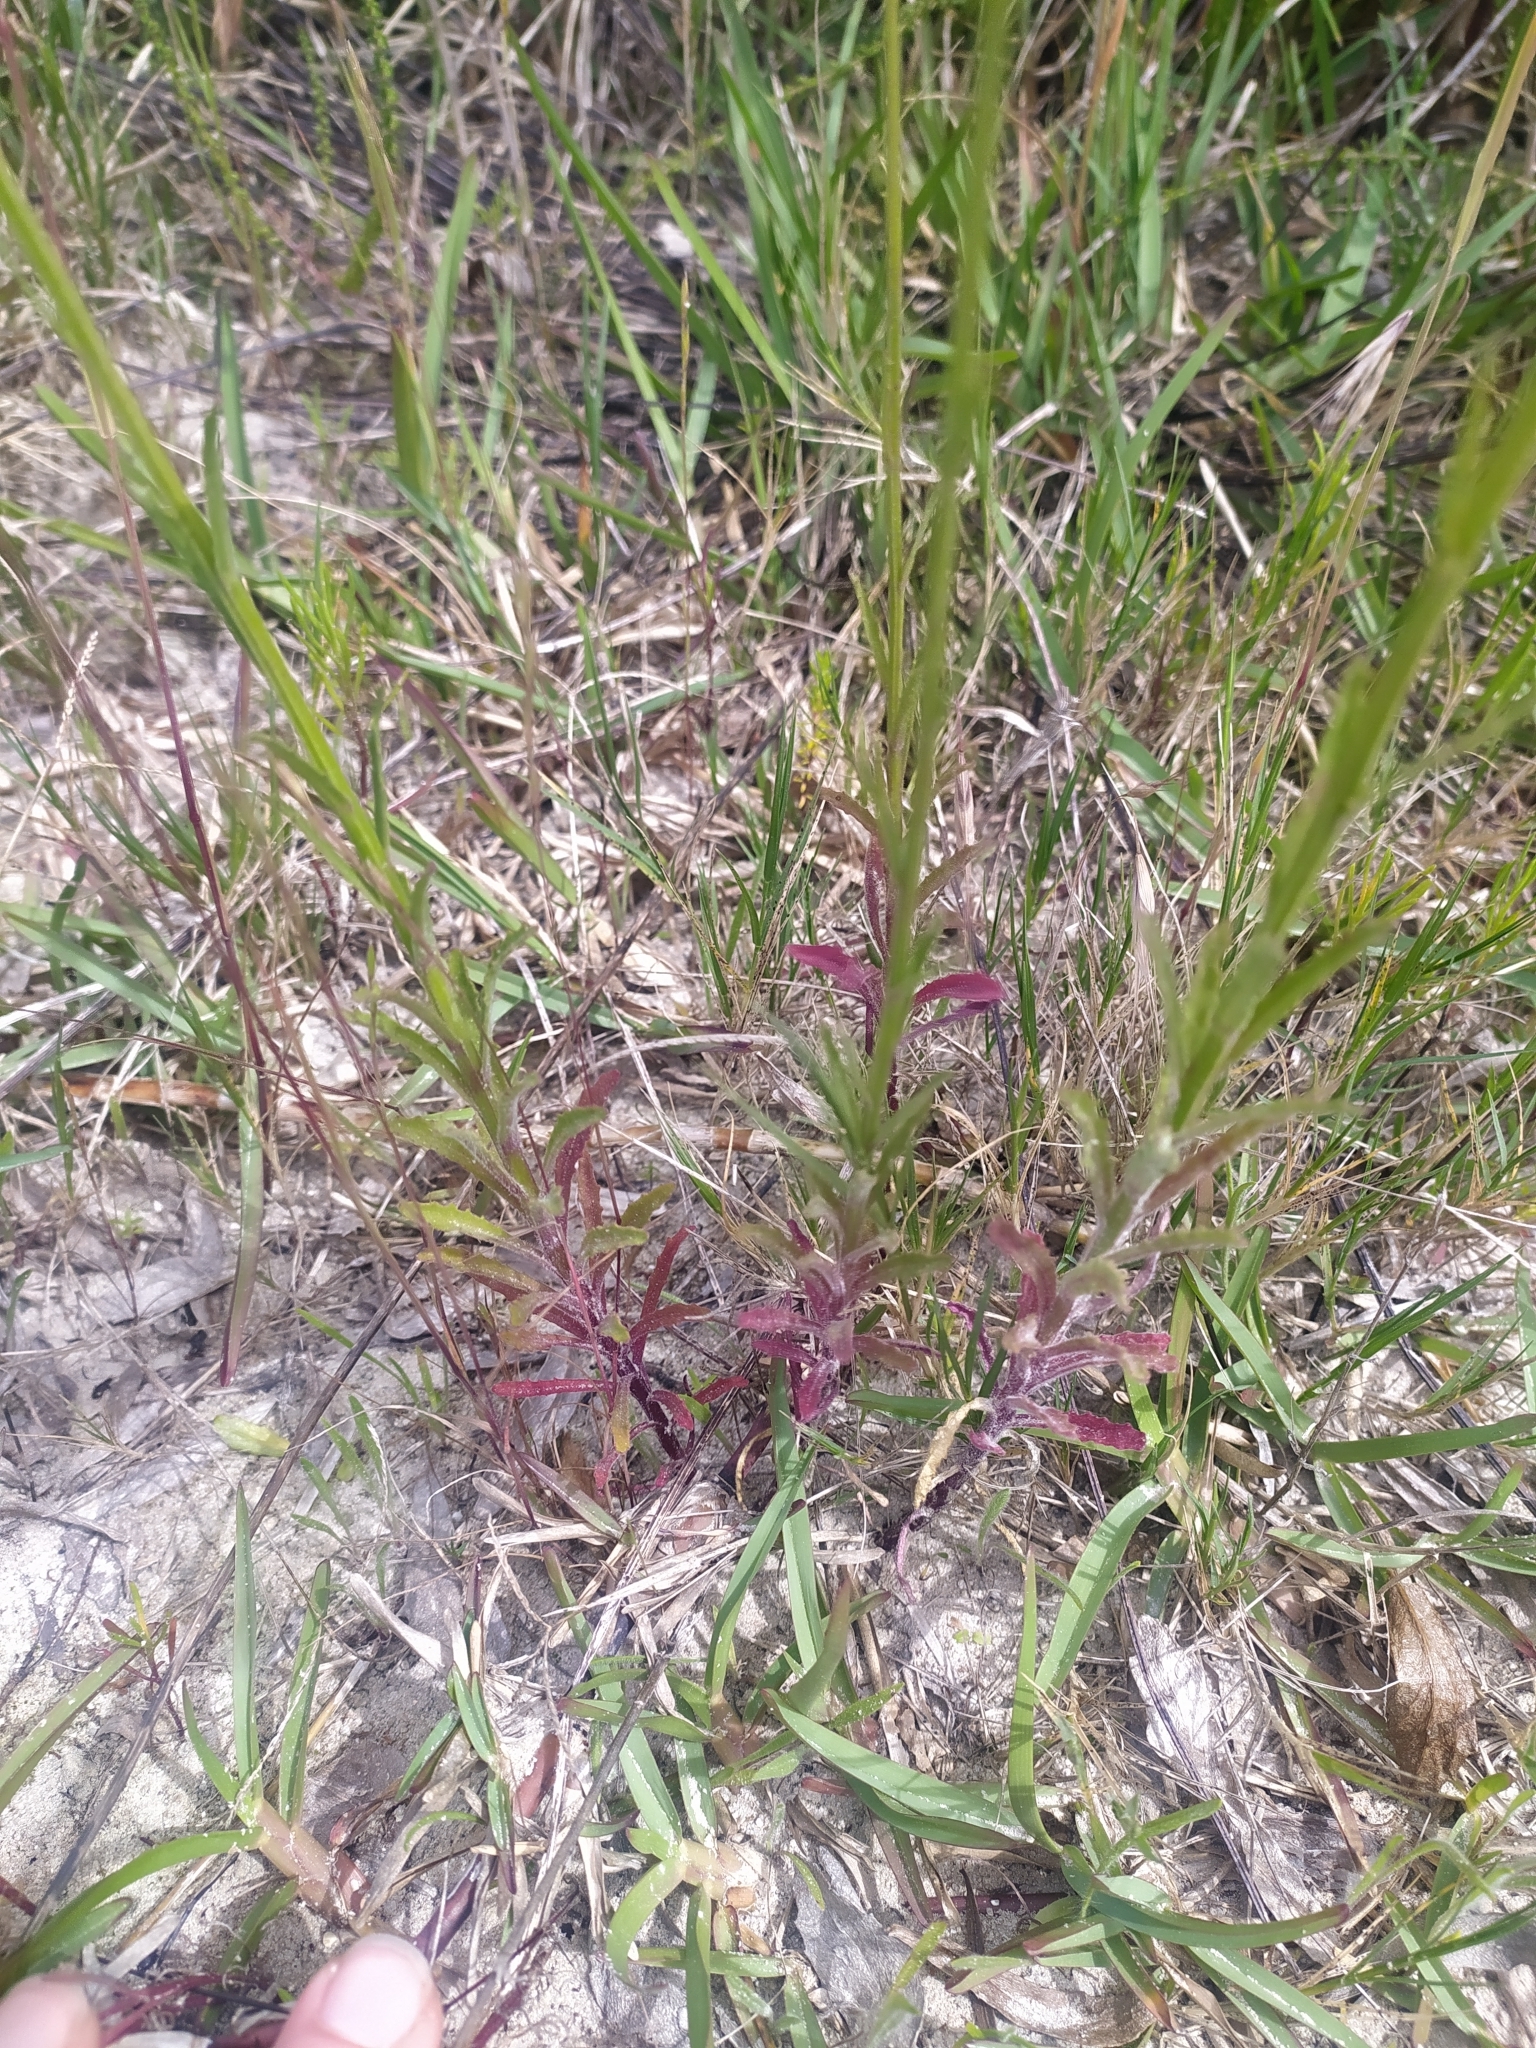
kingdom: Plantae
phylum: Tracheophyta
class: Magnoliopsida
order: Asterales
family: Campanulaceae
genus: Lobelia
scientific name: Lobelia comosa
